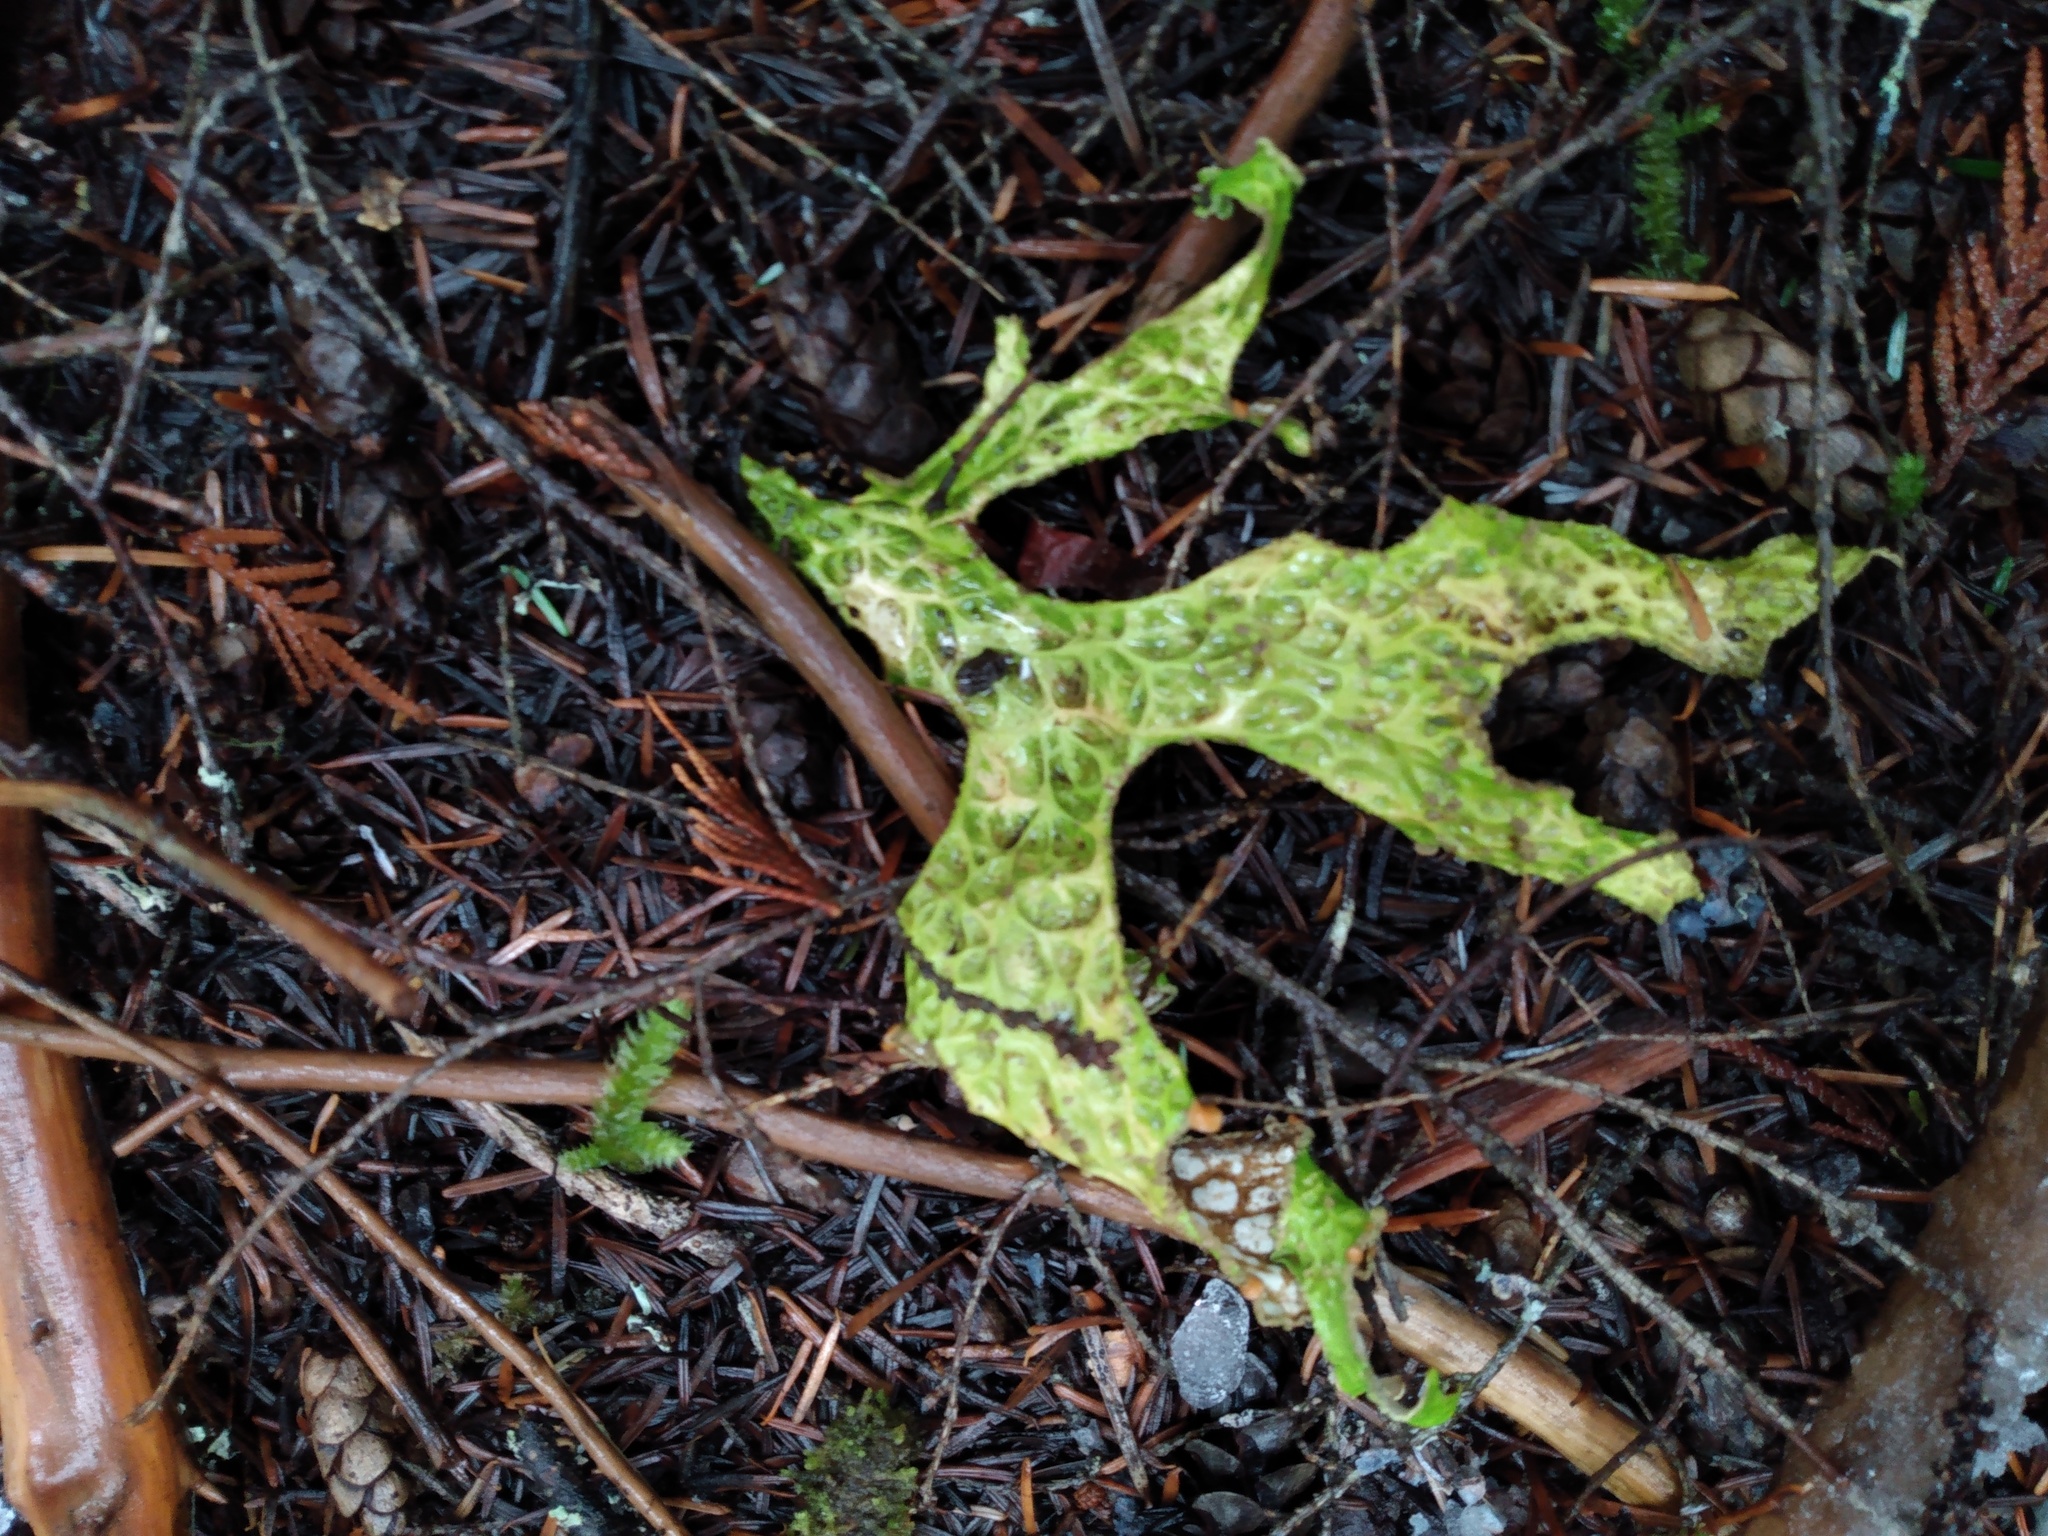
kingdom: Fungi
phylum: Ascomycota
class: Lecanoromycetes
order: Peltigerales
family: Lobariaceae
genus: Lobaria
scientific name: Lobaria pulmonaria
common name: Lungwort
